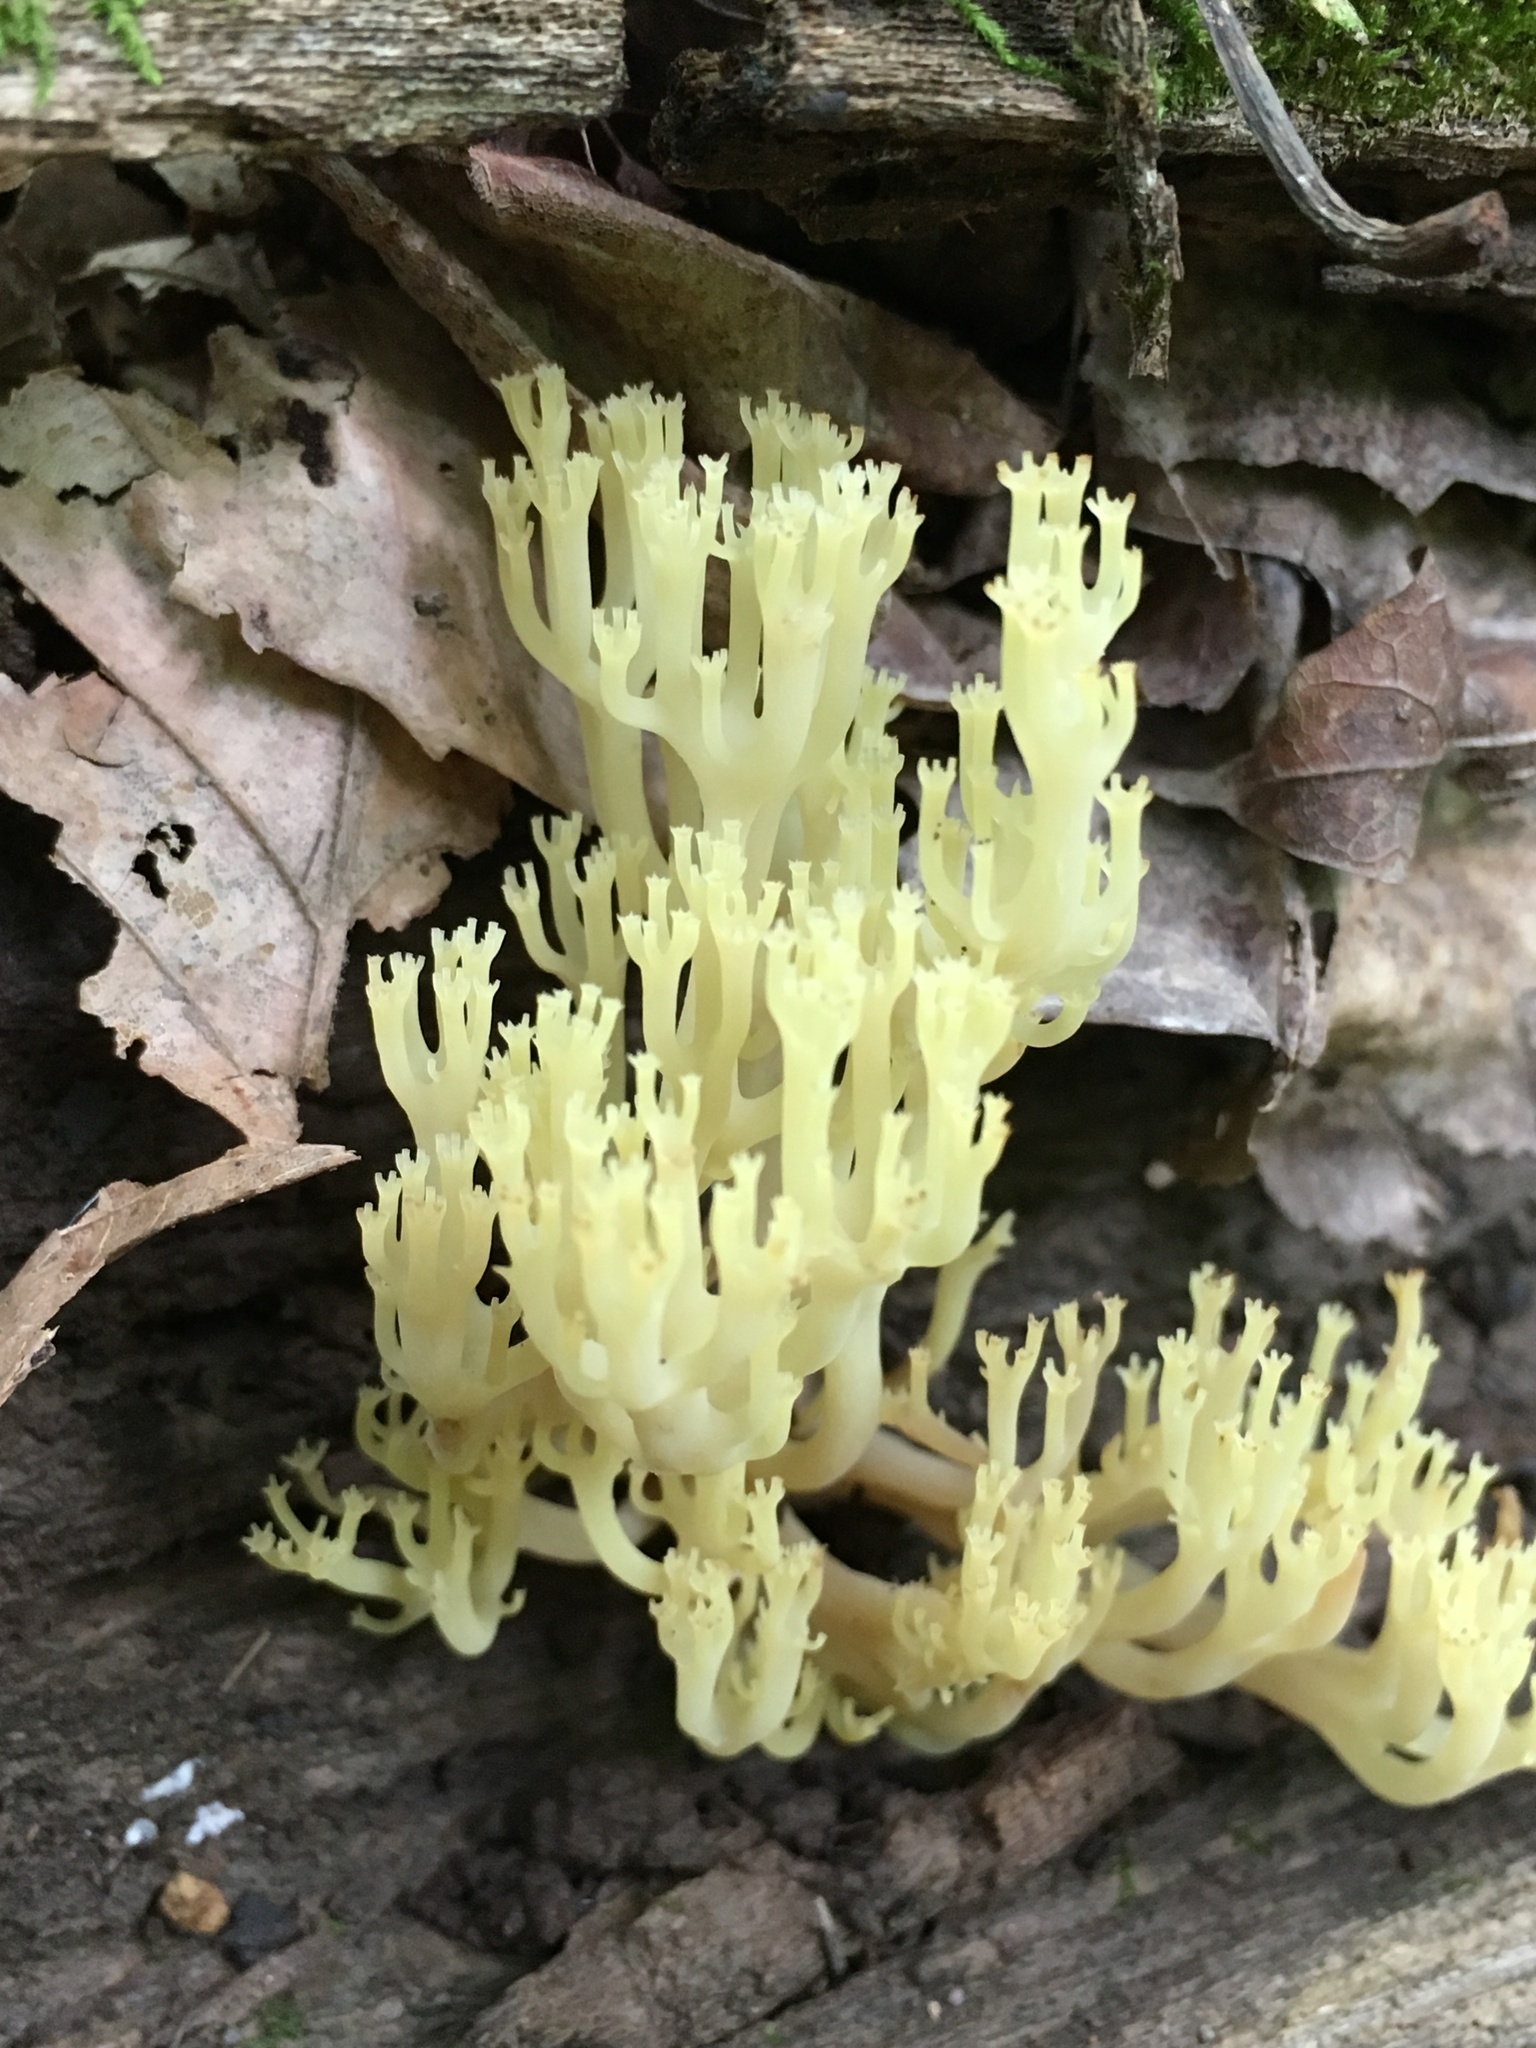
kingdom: Fungi
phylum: Basidiomycota
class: Agaricomycetes
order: Russulales
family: Auriscalpiaceae
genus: Artomyces
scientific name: Artomyces pyxidatus
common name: Crown-tipped coral fungus
